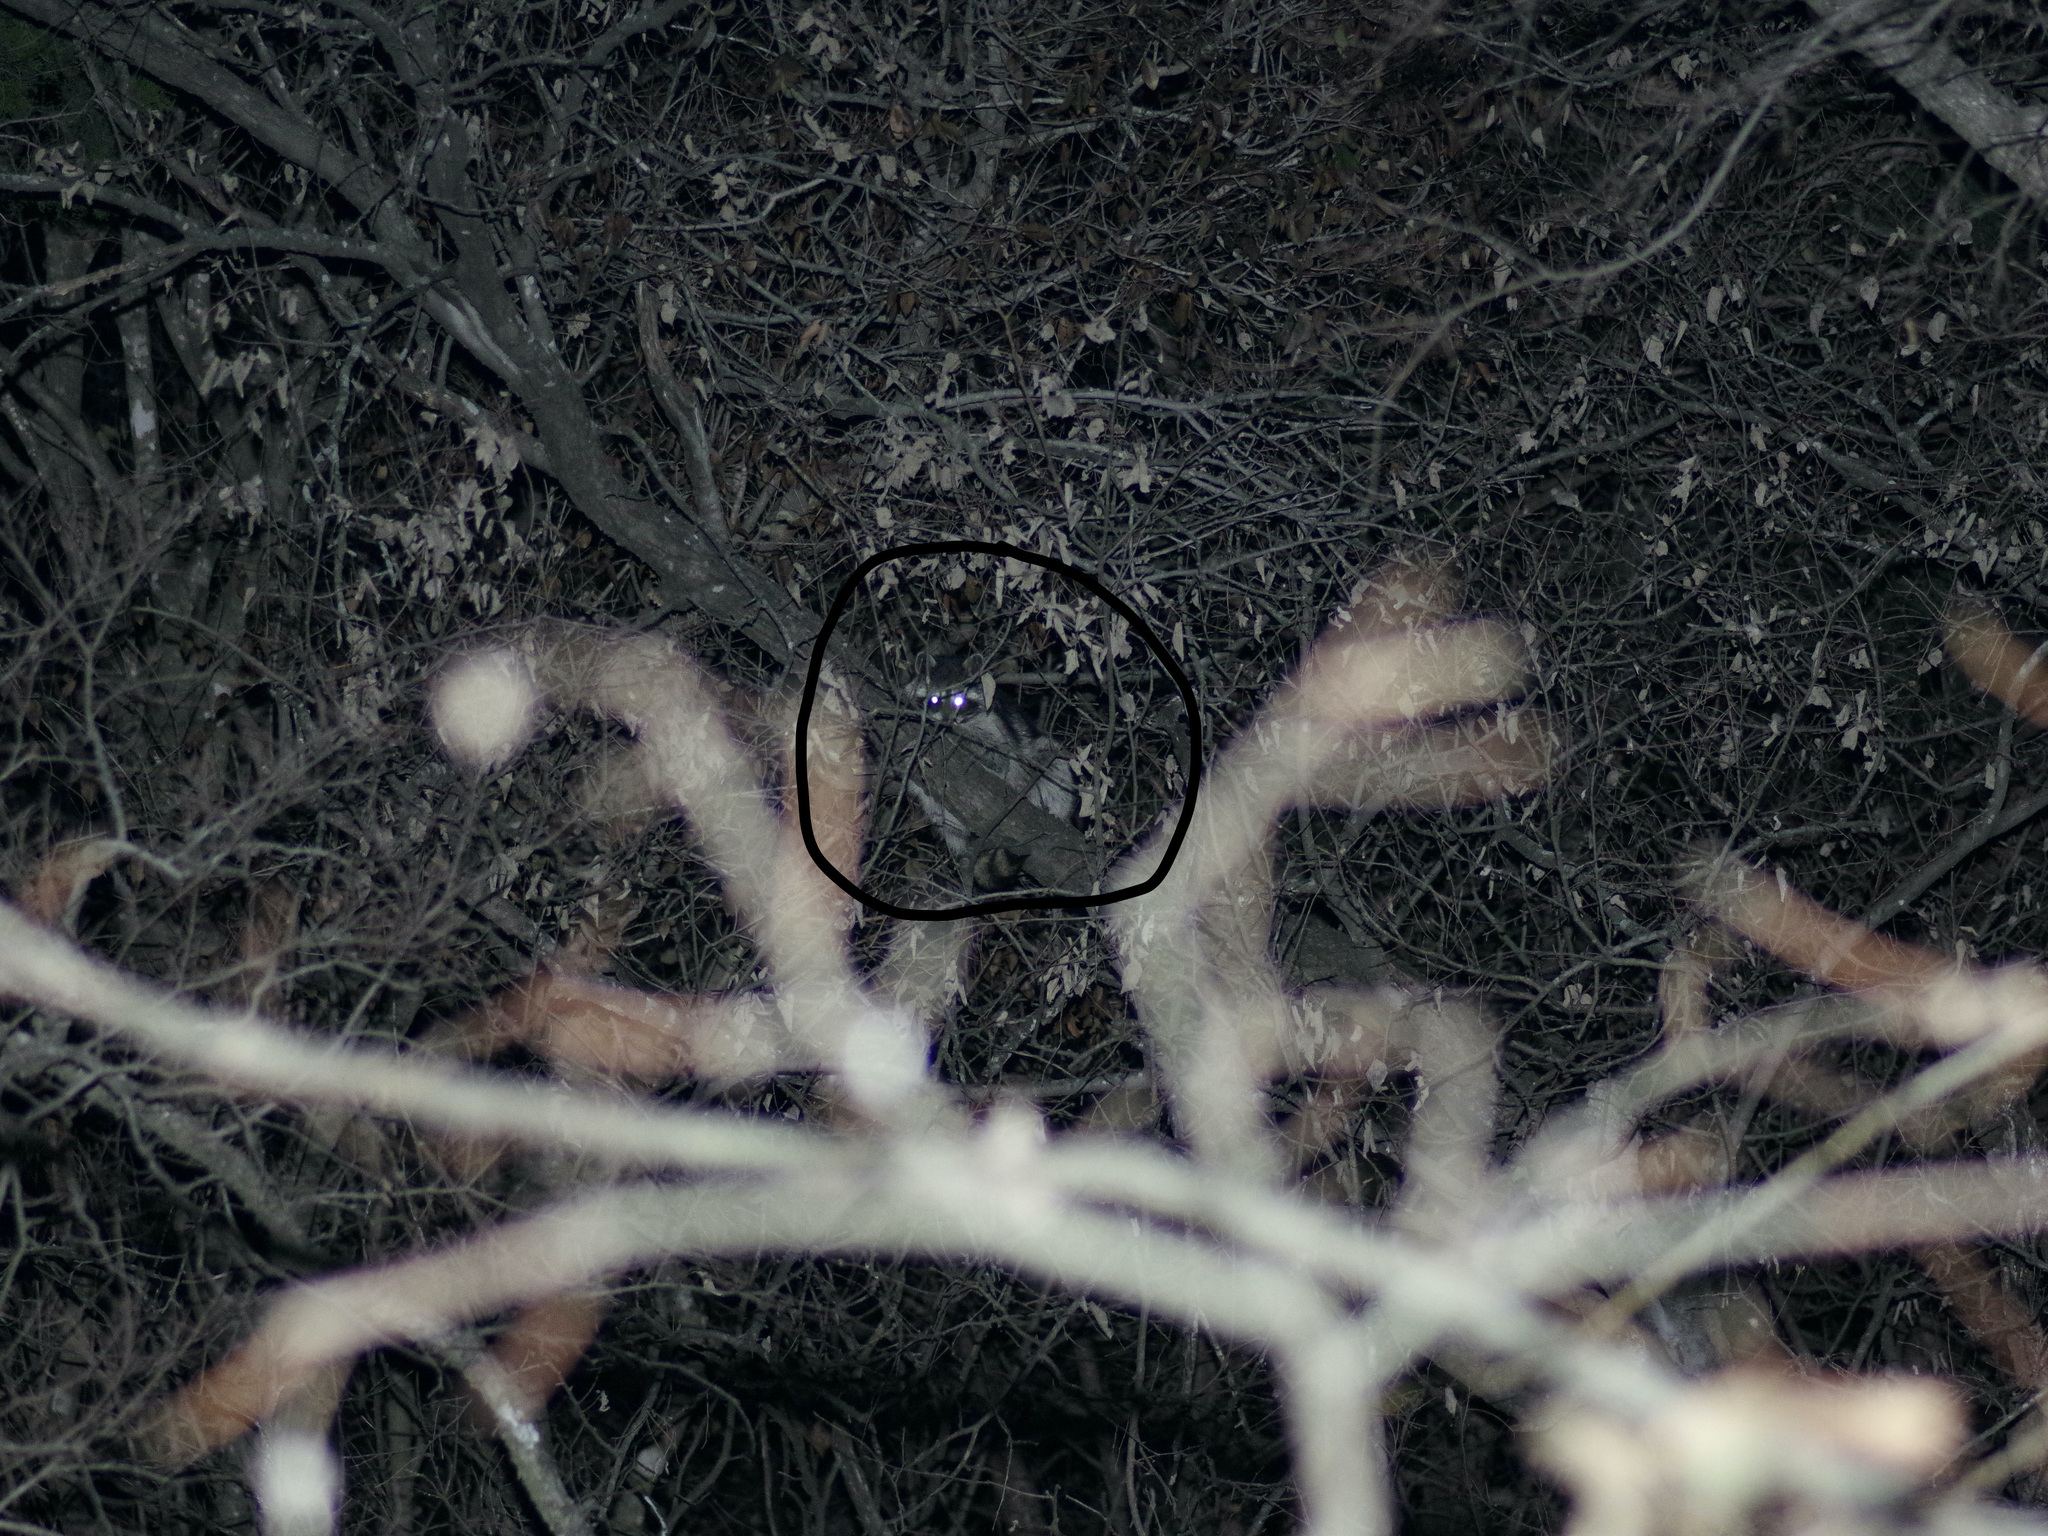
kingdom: Animalia
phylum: Chordata
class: Mammalia
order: Carnivora
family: Procyonidae
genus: Procyon
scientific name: Procyon lotor
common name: Raccoon
